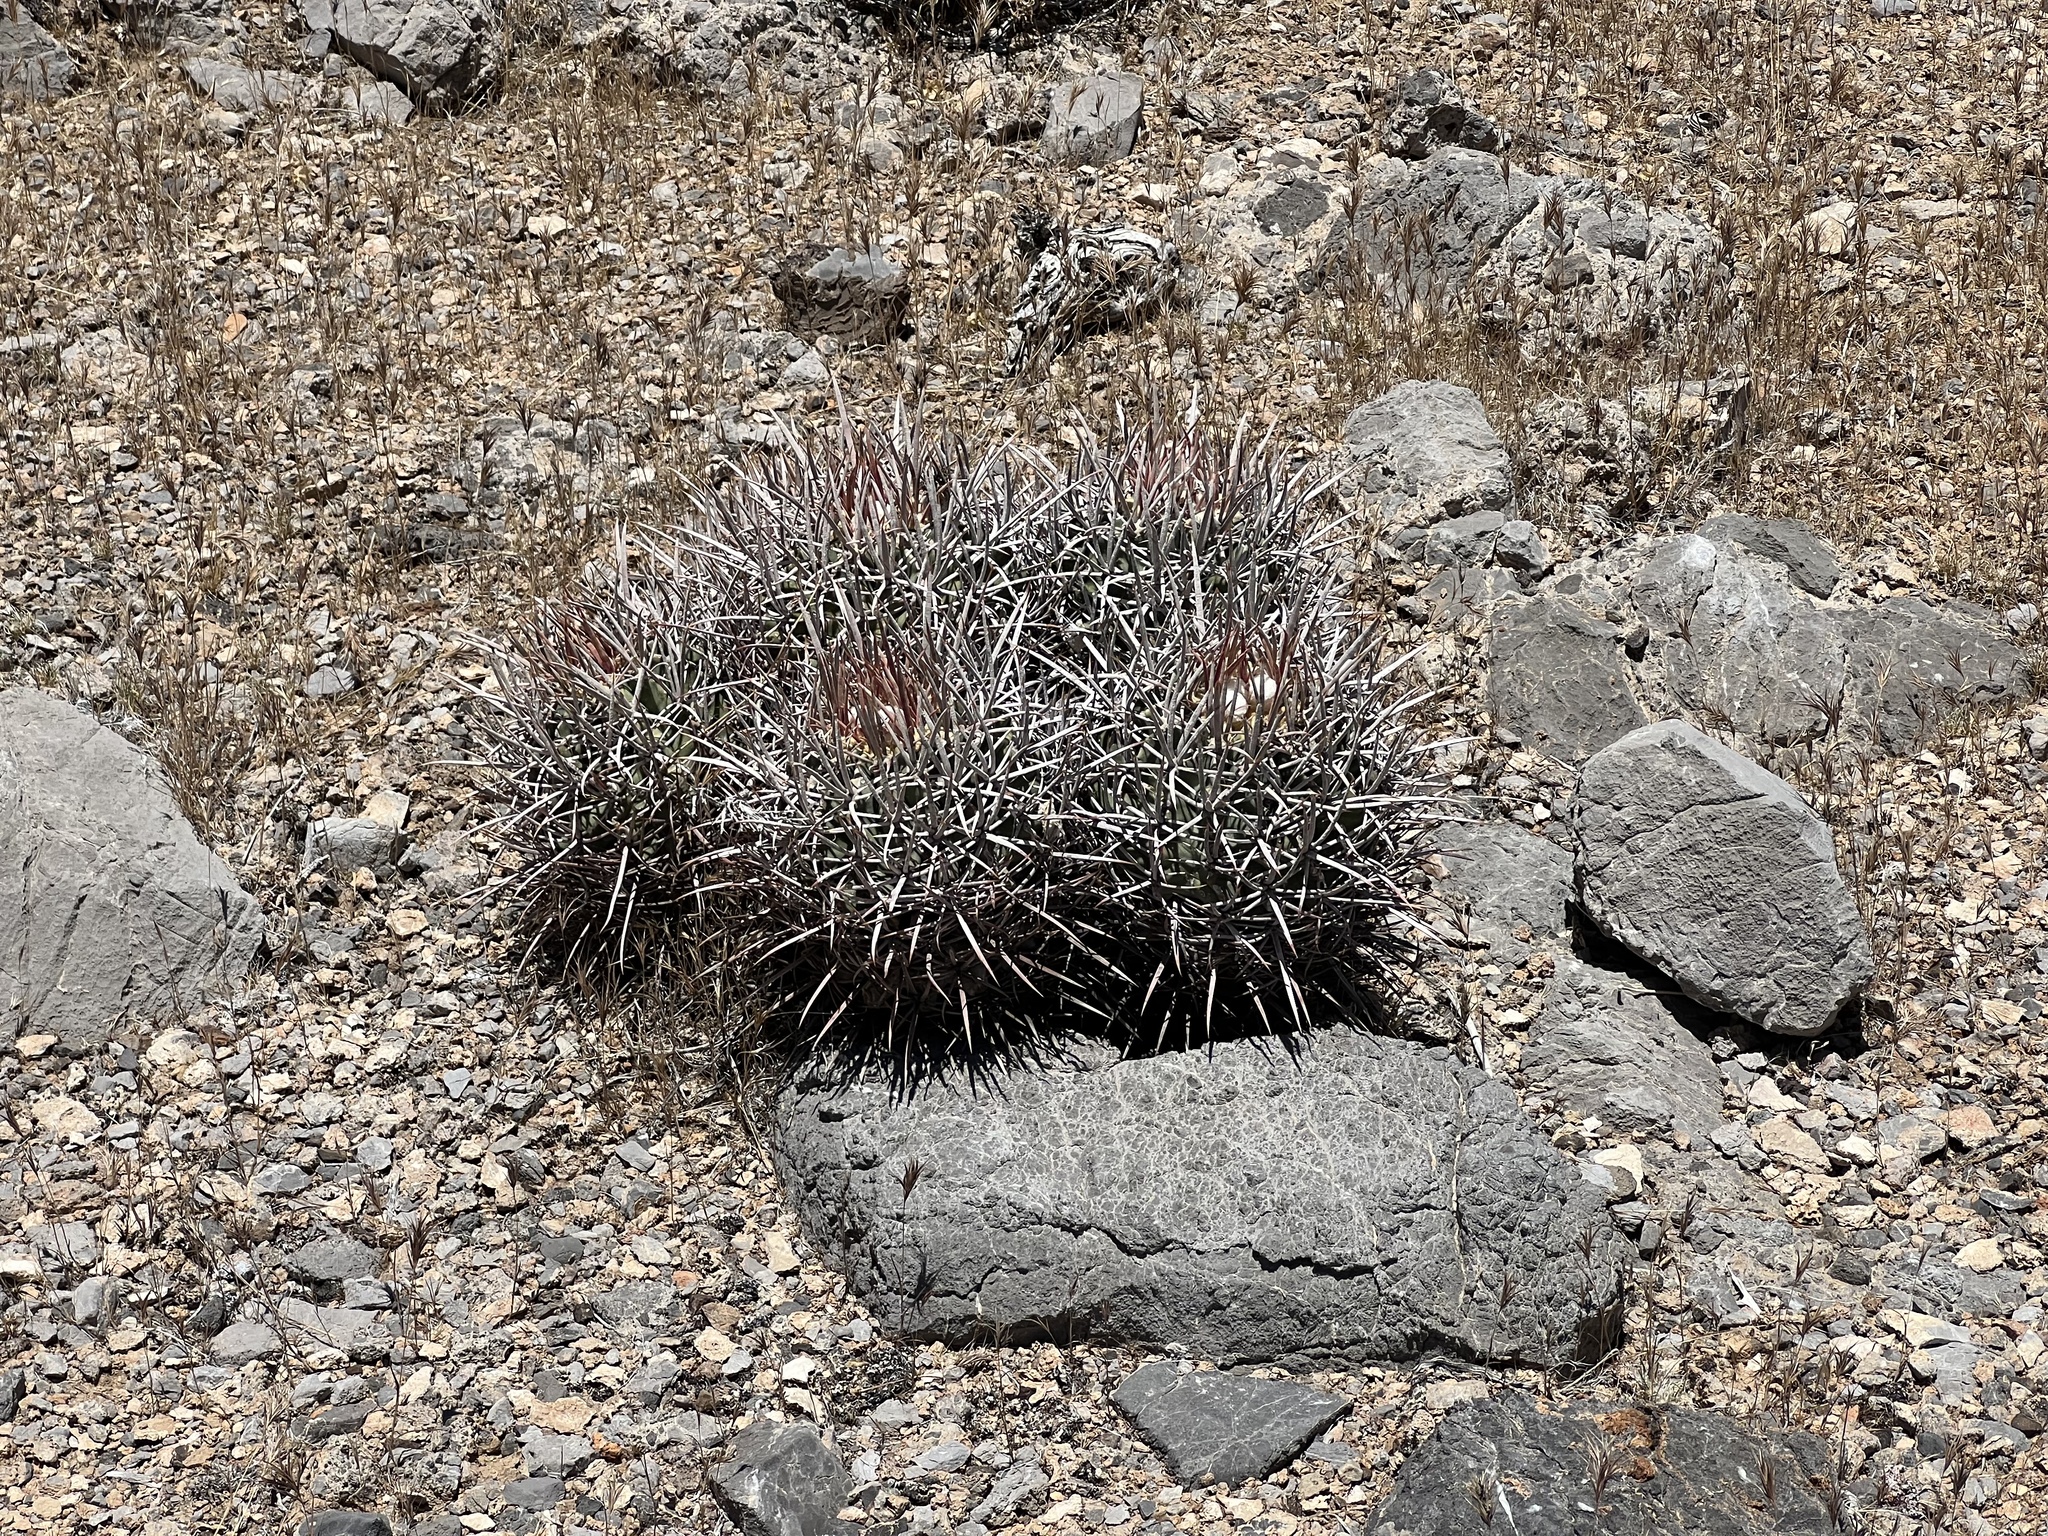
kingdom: Plantae
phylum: Tracheophyta
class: Magnoliopsida
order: Caryophyllales
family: Cactaceae
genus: Echinocactus
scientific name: Echinocactus polycephalus
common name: Cottontop cactus
